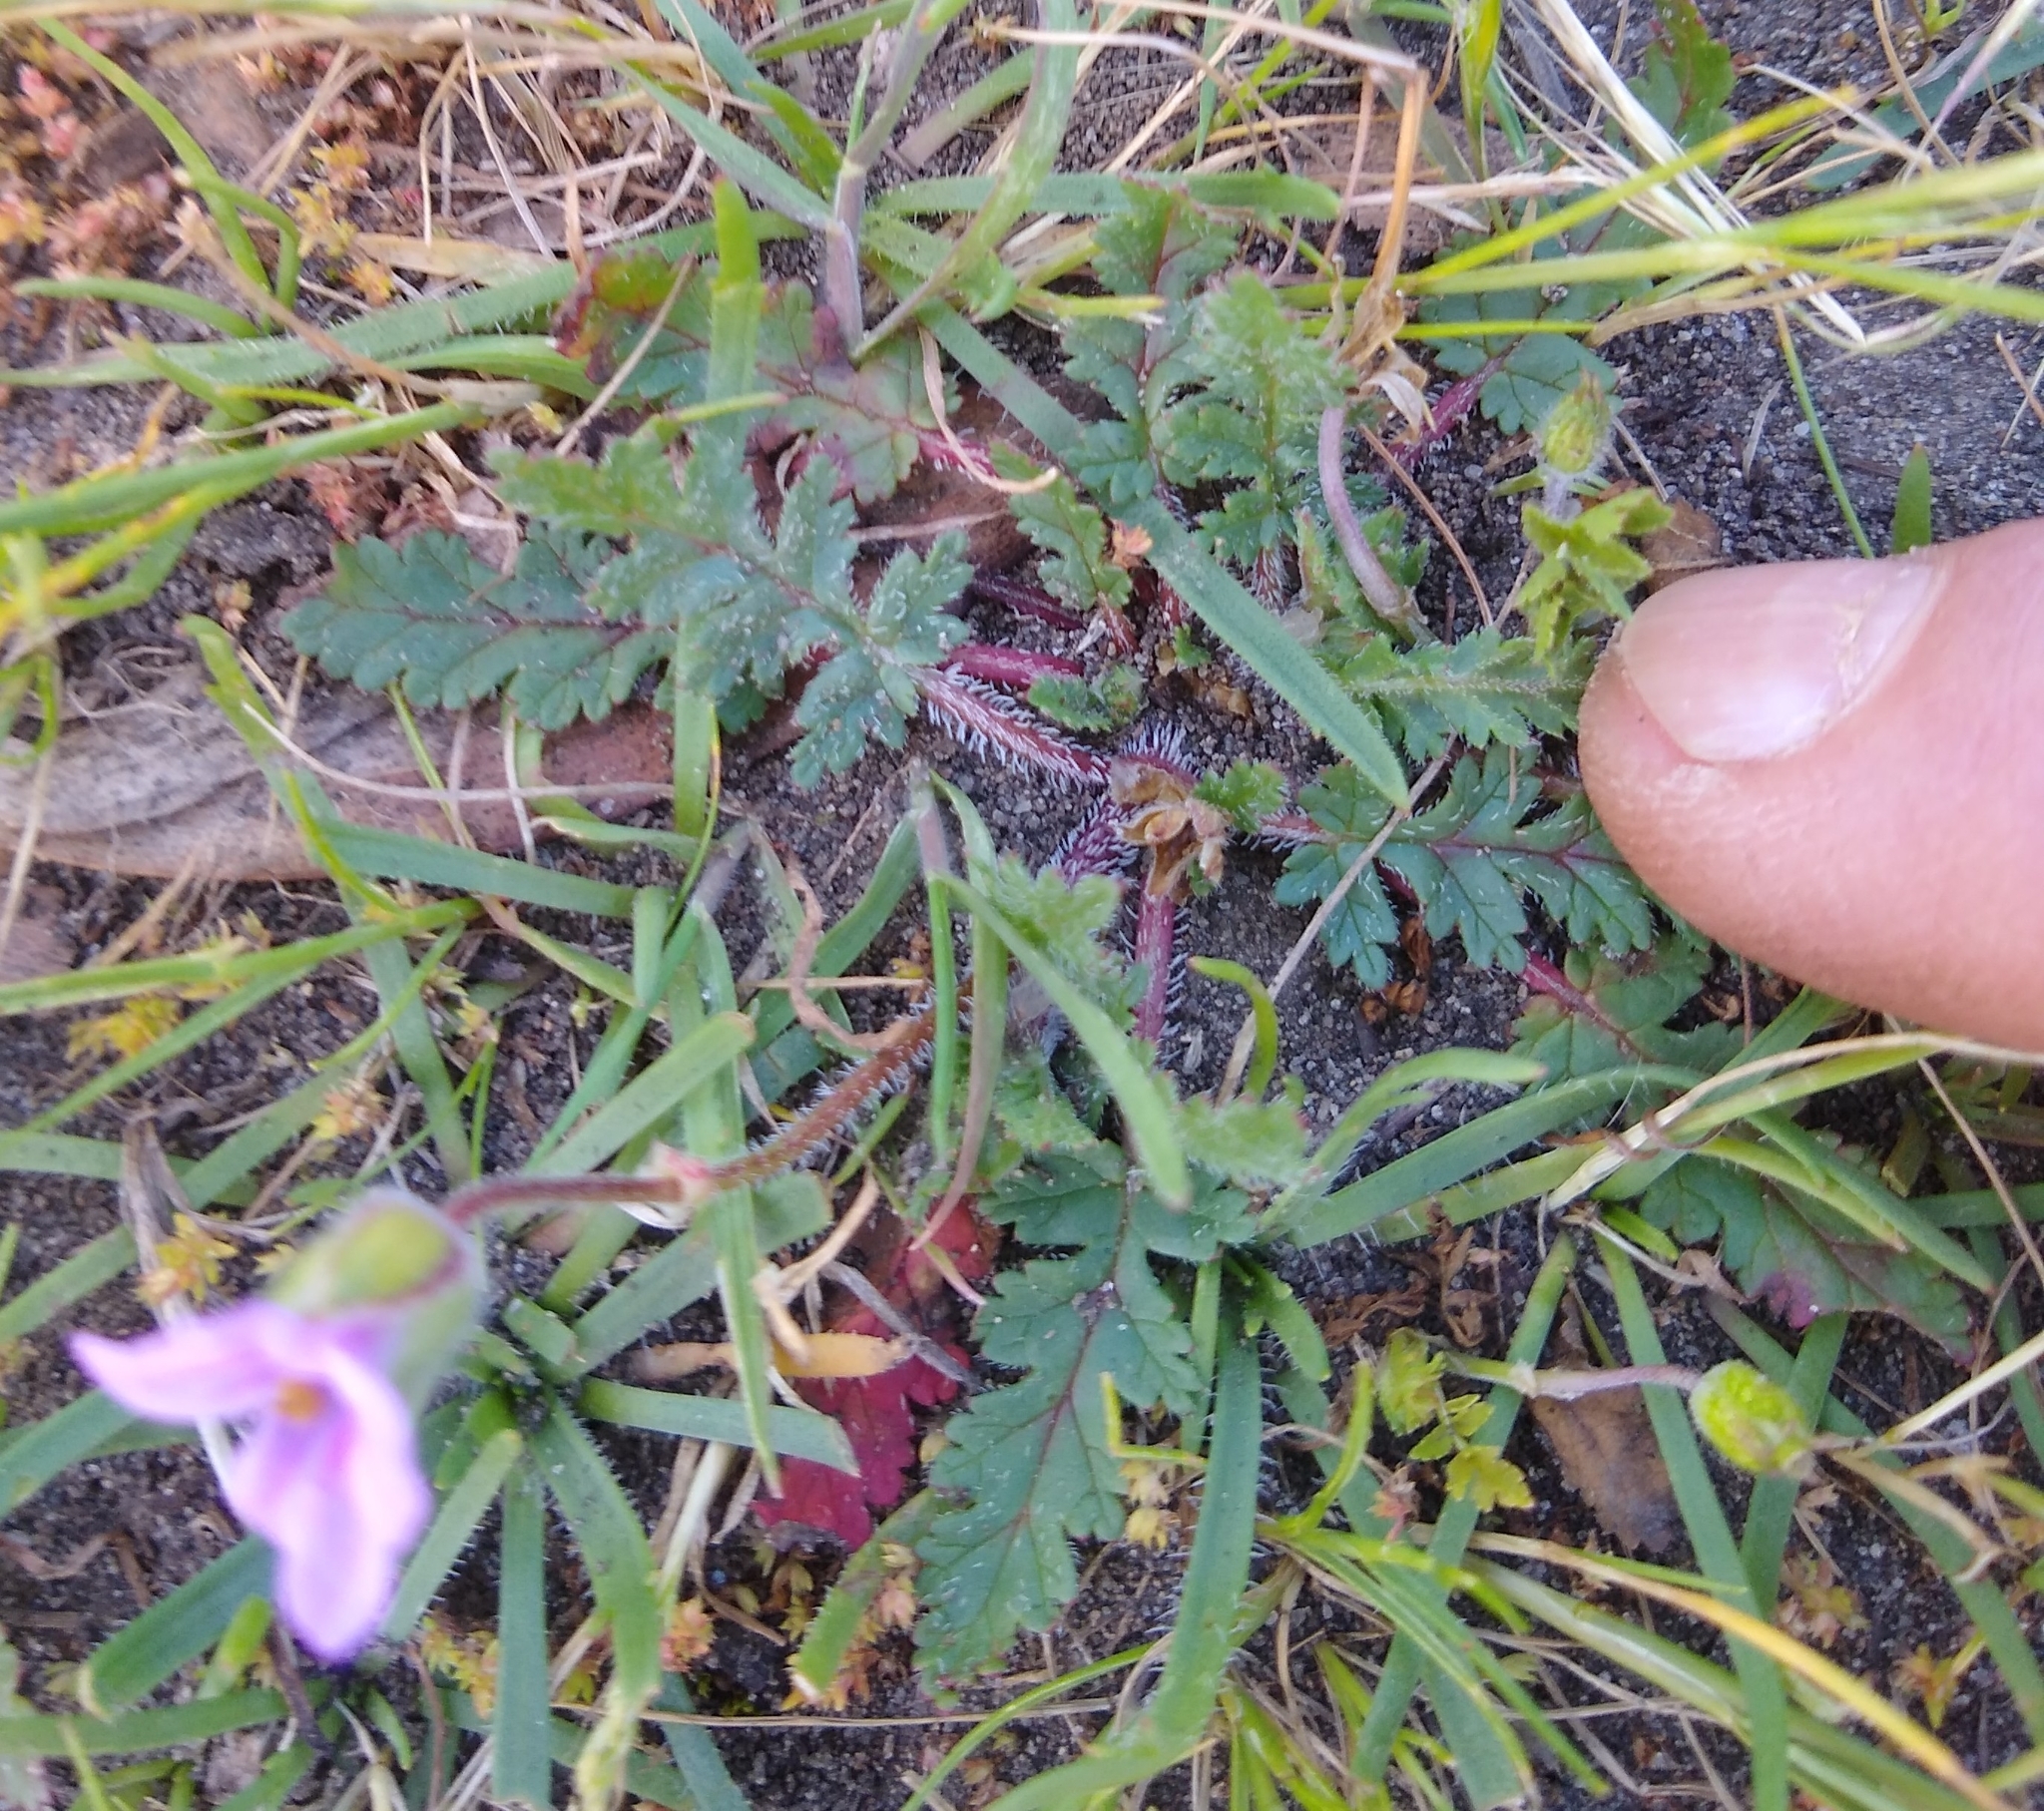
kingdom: Plantae
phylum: Tracheophyta
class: Magnoliopsida
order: Geraniales
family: Geraniaceae
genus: Erodium
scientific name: Erodium botrys
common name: Mediterranean stork's-bill
